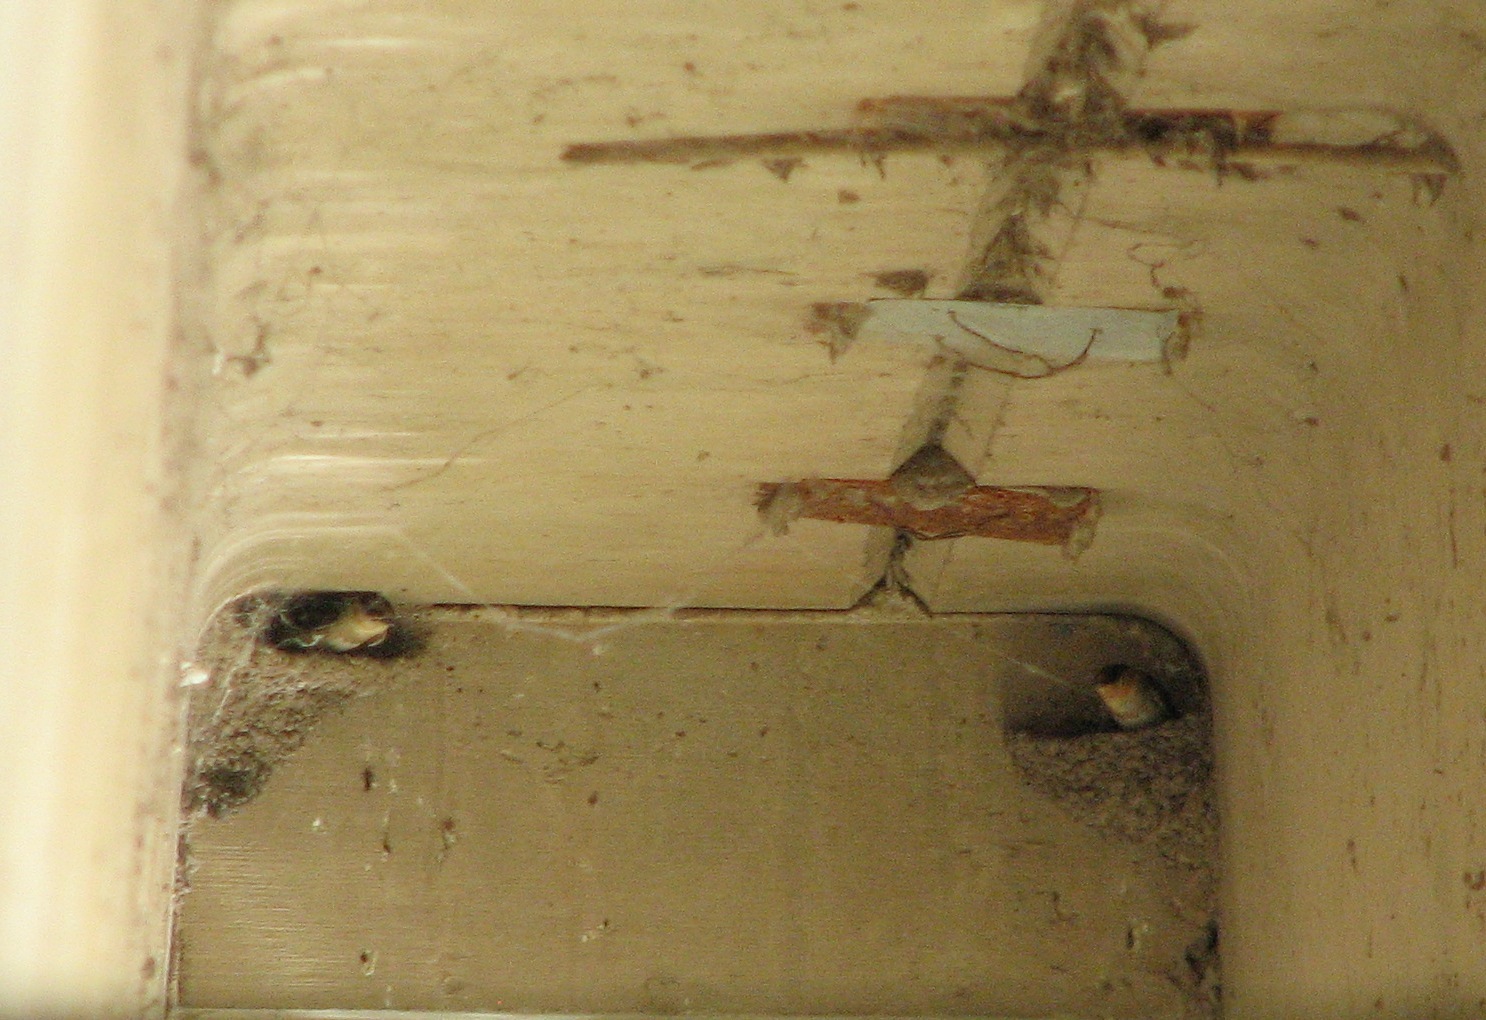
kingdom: Animalia
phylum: Chordata
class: Aves
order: Passeriformes
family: Hirundinidae
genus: Petrochelidon
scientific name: Petrochelidon fulva
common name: Cave swallow
